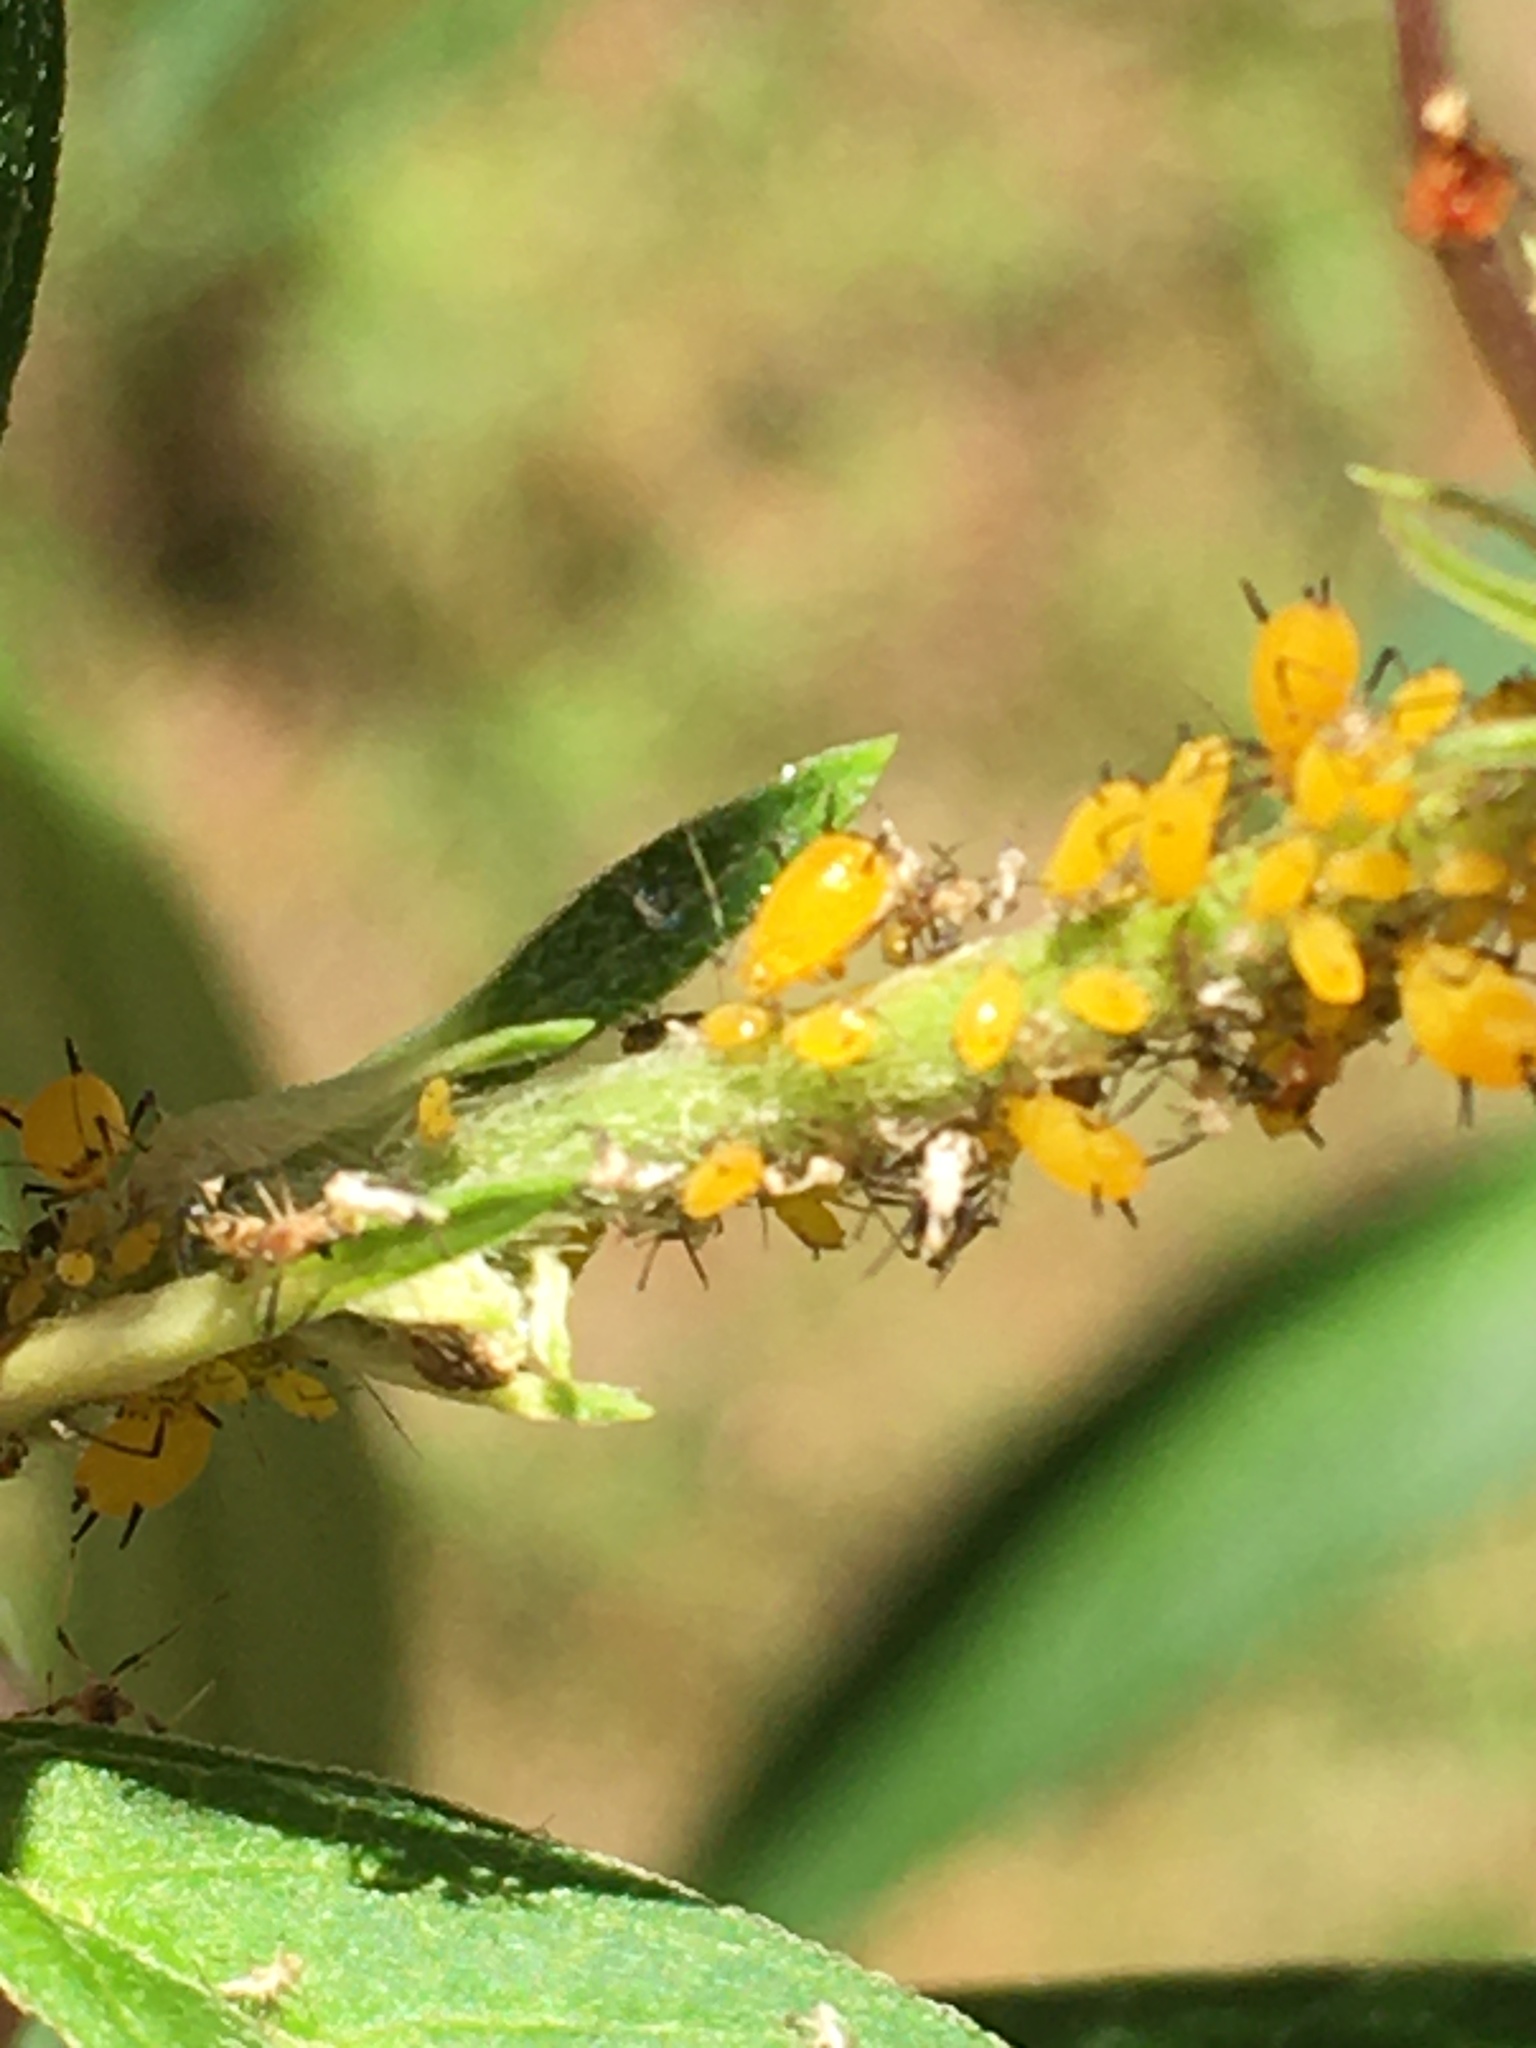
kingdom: Animalia
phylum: Arthropoda
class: Insecta
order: Hemiptera
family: Aphididae
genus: Aphis
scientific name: Aphis nerii
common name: Oleander aphid
